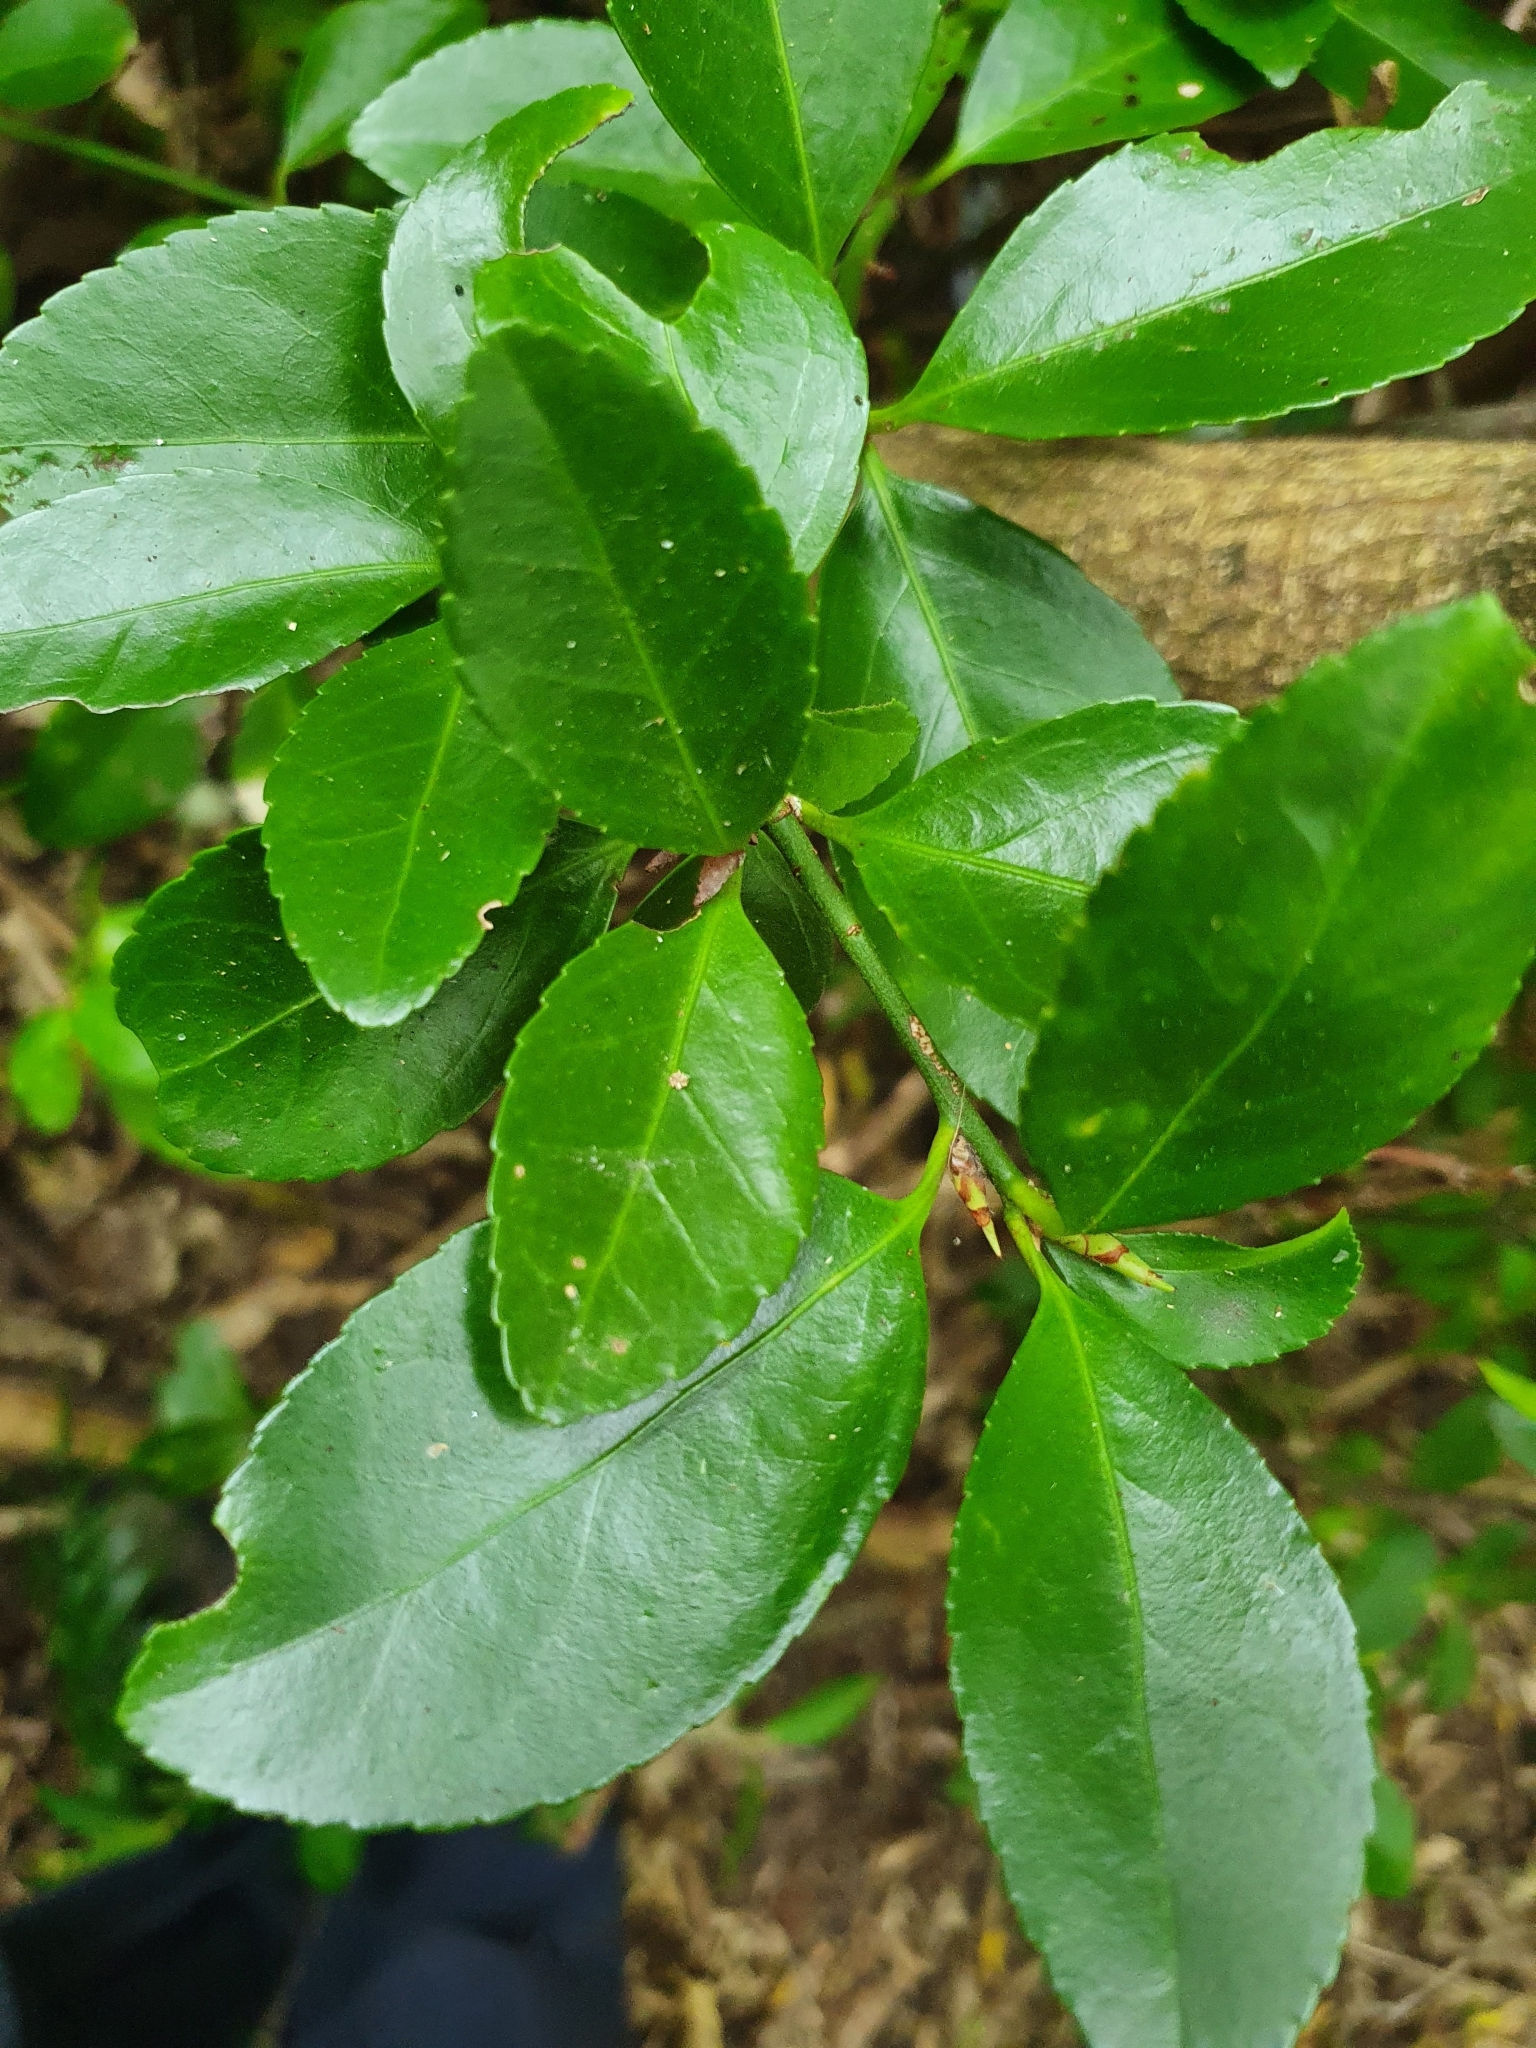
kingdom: Plantae
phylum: Tracheophyta
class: Magnoliopsida
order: Celastrales
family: Celastraceae
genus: Euonymus
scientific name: Euonymus japonicus
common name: Japanese spindletree
